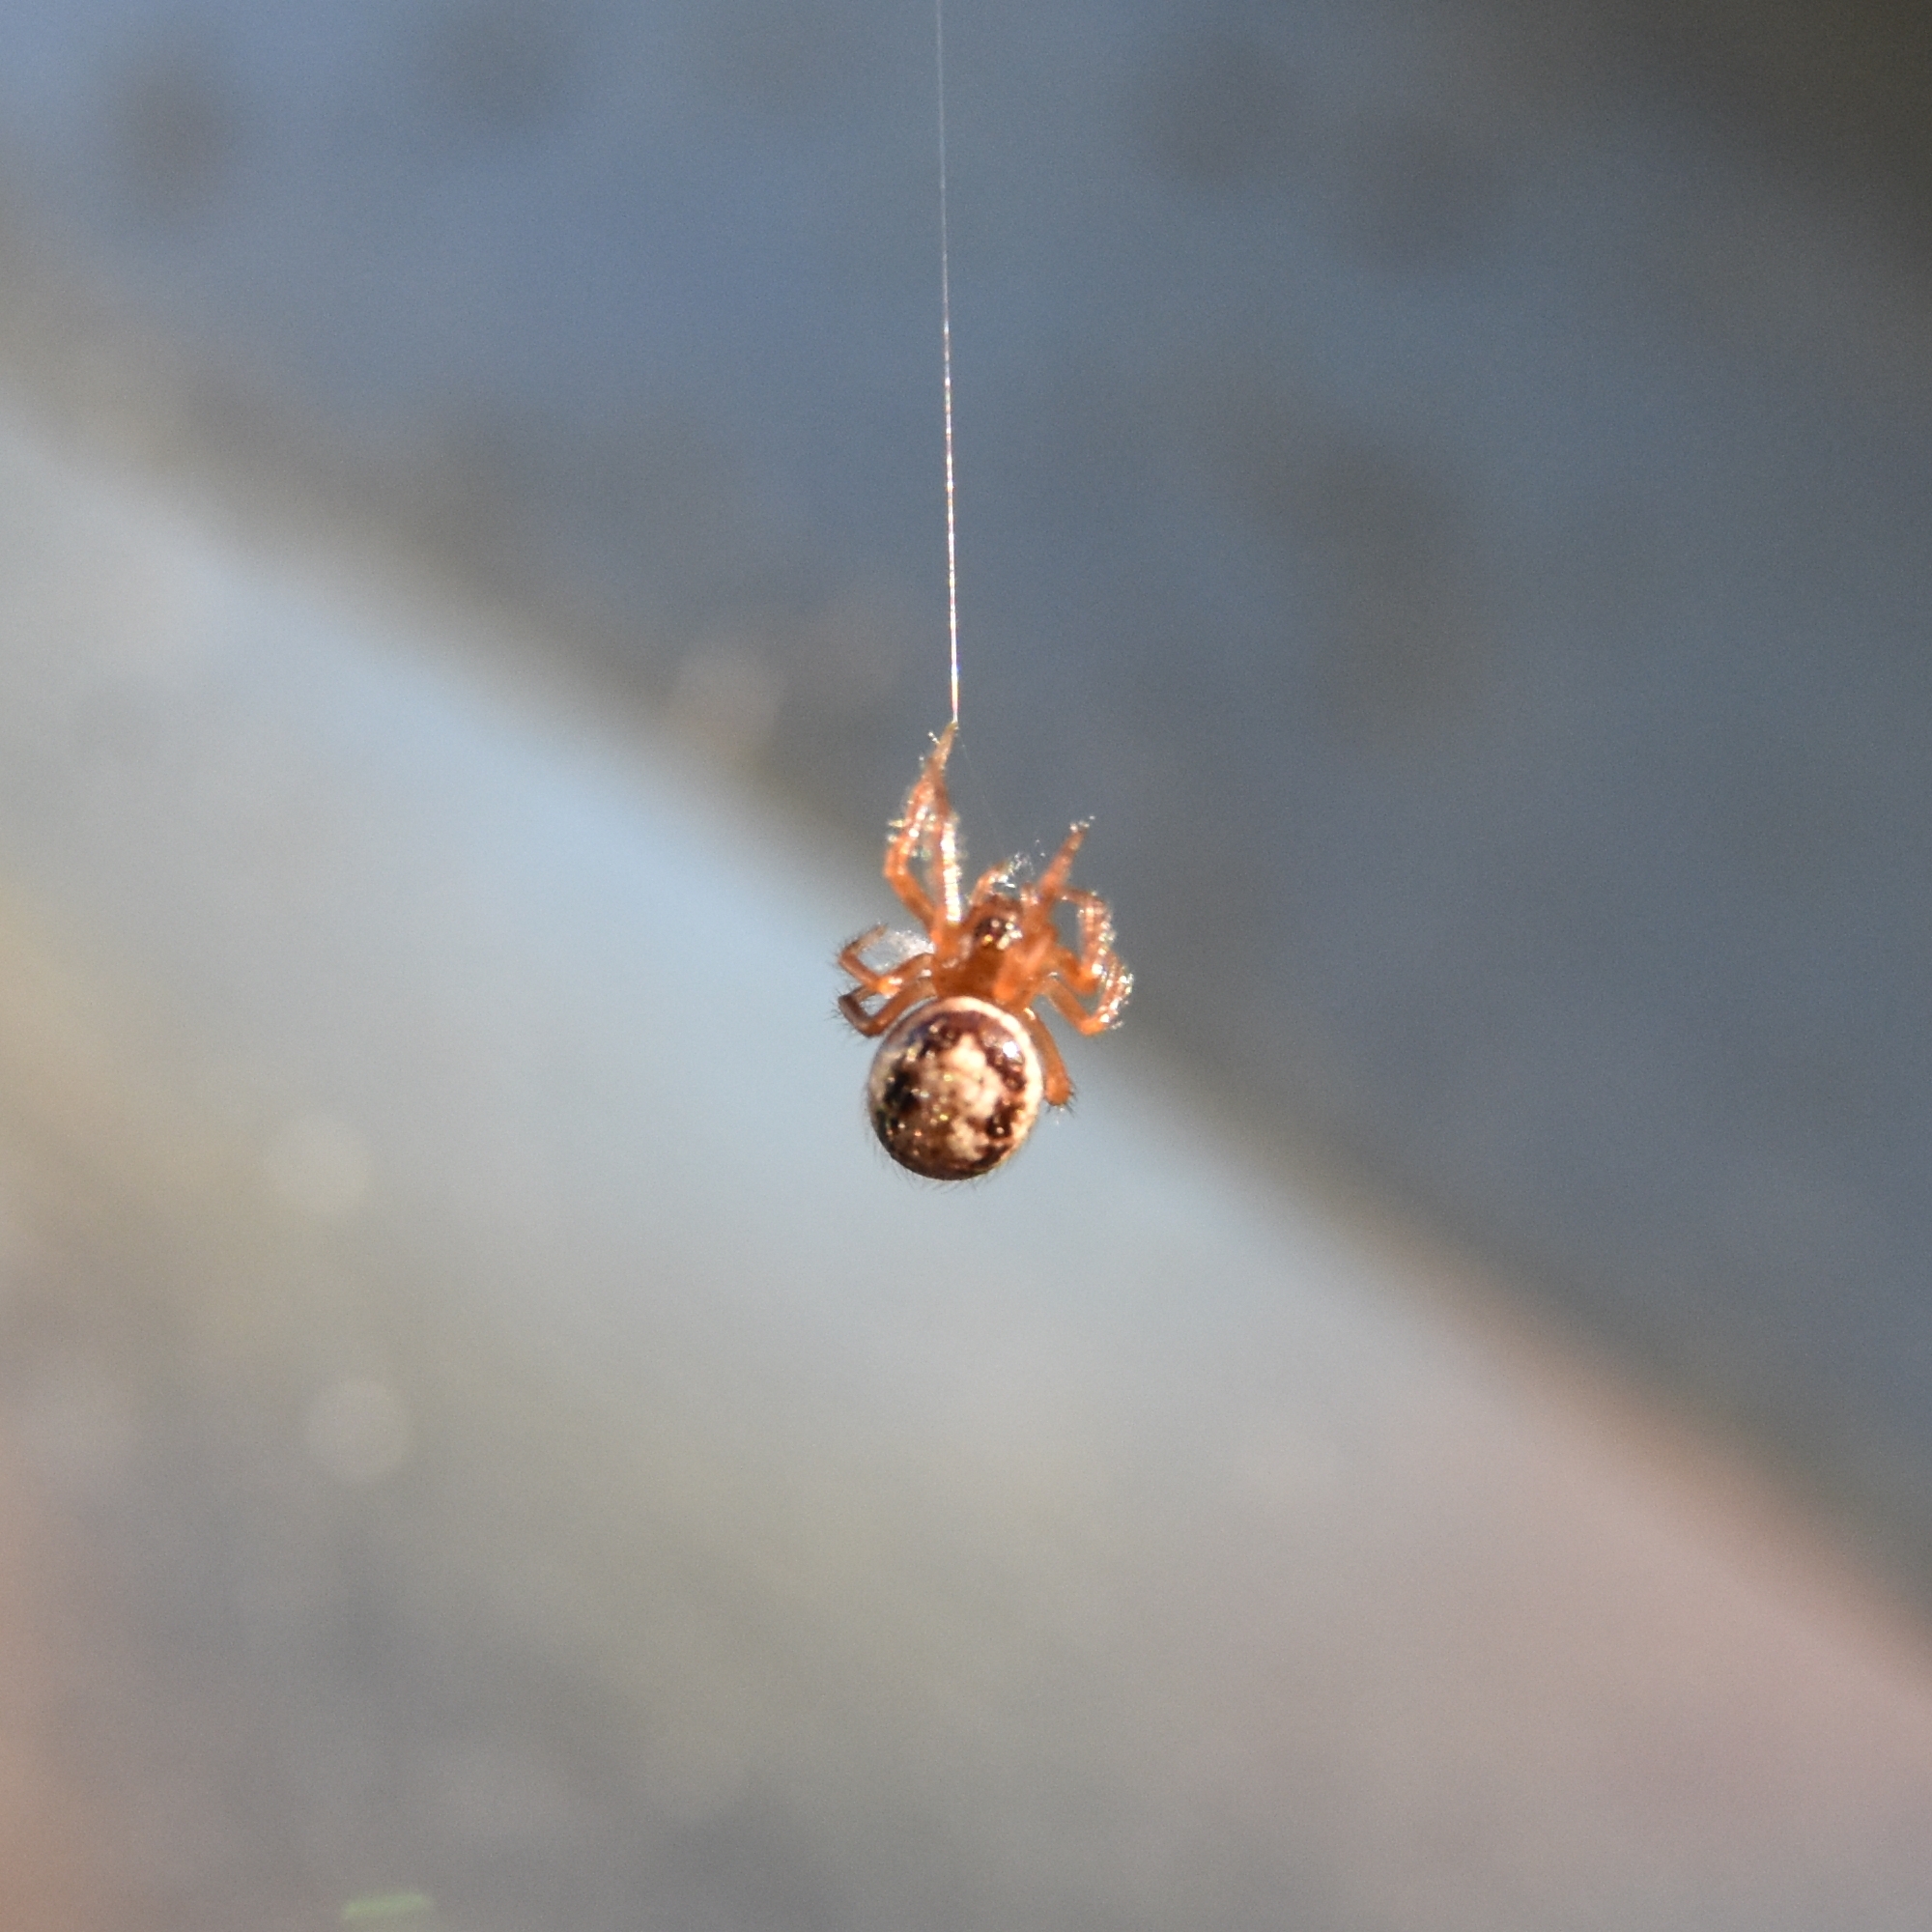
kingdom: Animalia
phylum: Arthropoda
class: Arachnida
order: Araneae
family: Theridiidae
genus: Steatoda
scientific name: Steatoda nobilis
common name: Cobweb weaver
